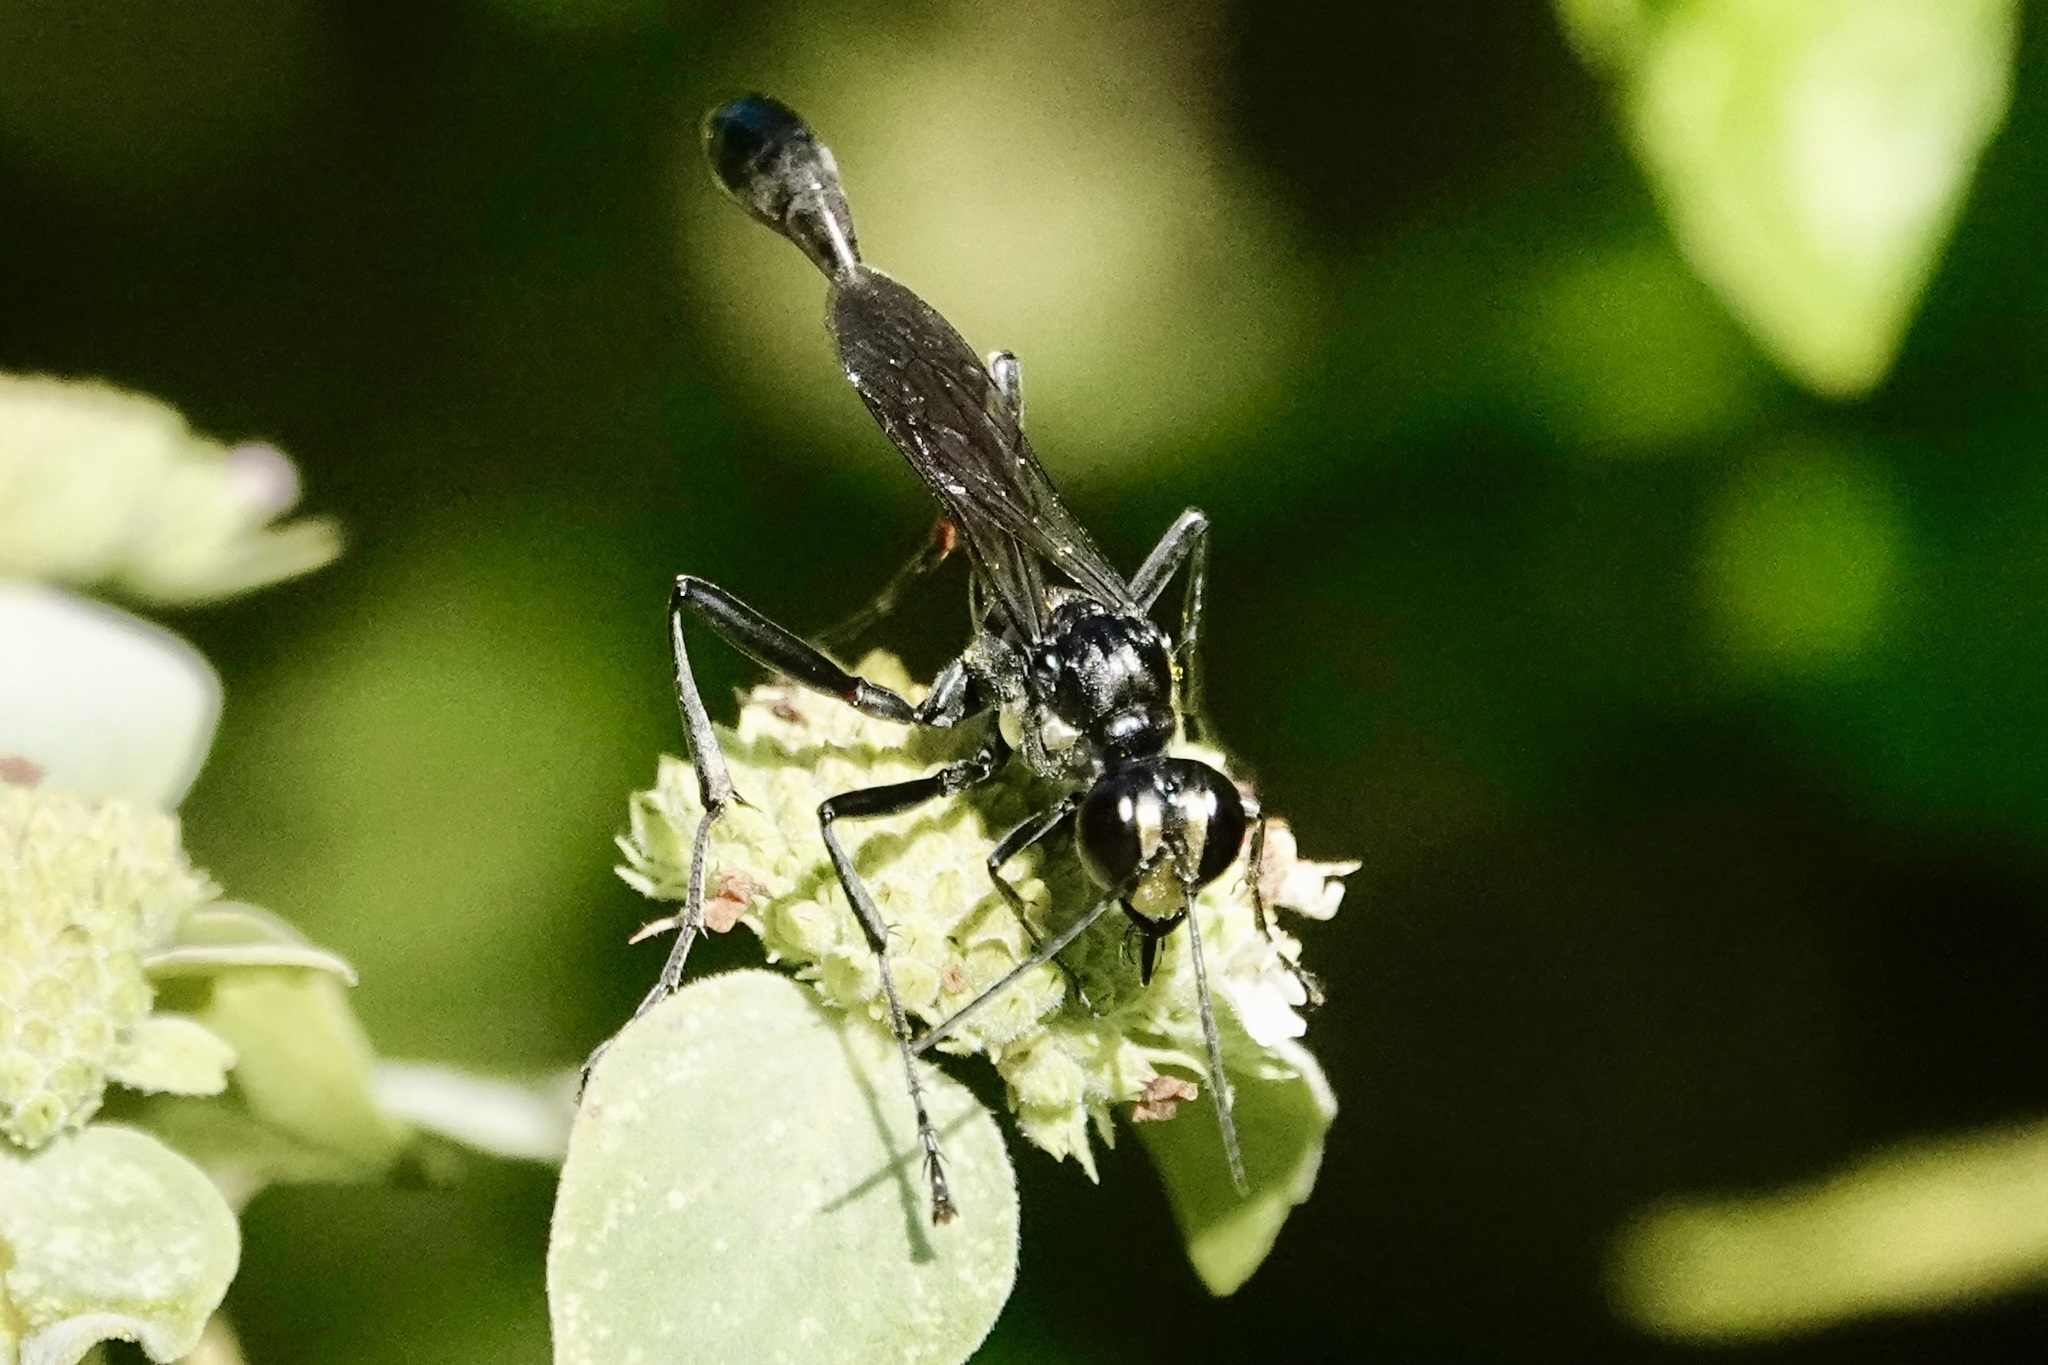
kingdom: Animalia
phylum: Arthropoda
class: Insecta
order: Hymenoptera
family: Sphecidae
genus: Eremnophila
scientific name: Eremnophila aureonotata
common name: Gold-marked thread-waisted wasp
